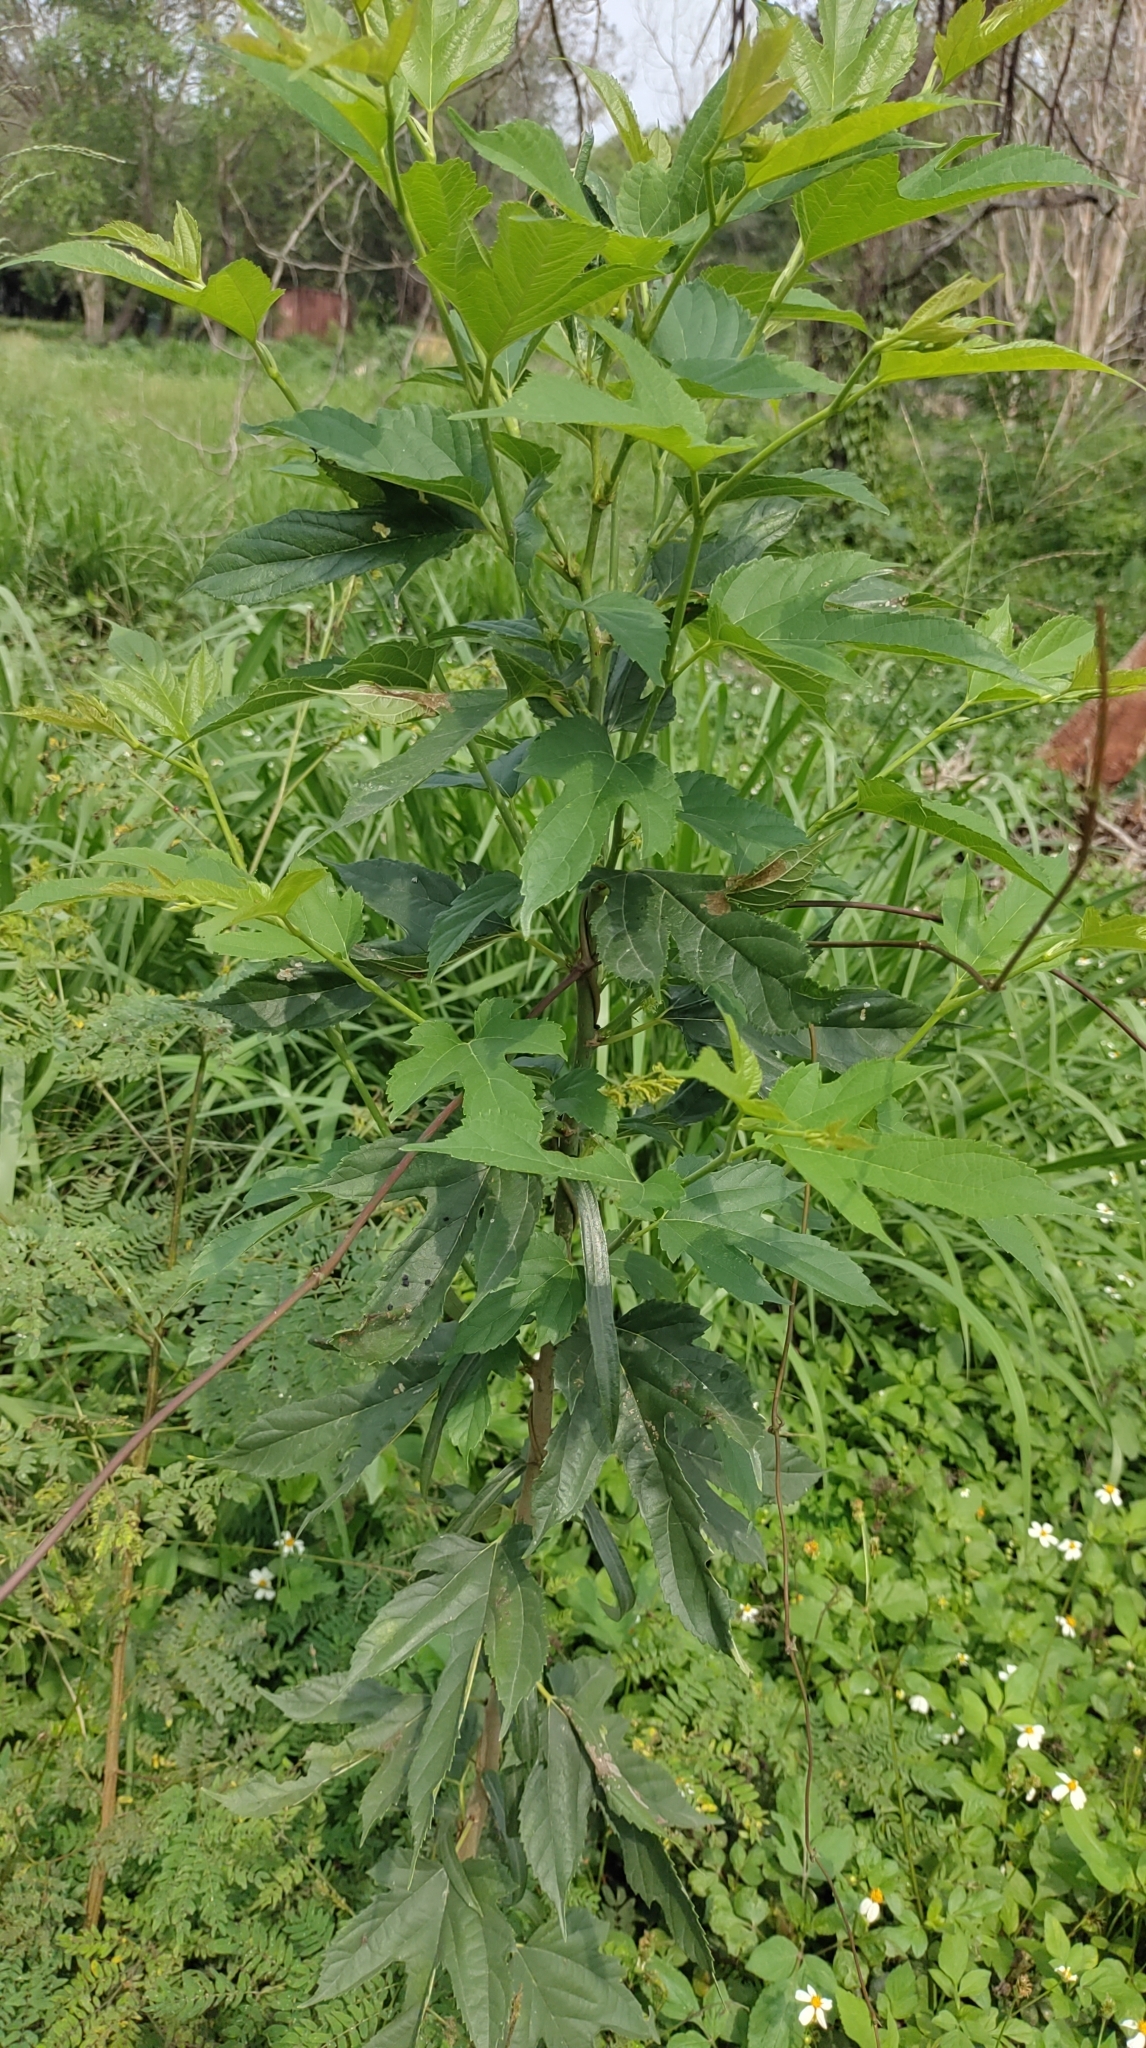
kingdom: Plantae
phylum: Tracheophyta
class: Magnoliopsida
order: Rosales
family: Moraceae
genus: Morus
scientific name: Morus indica
